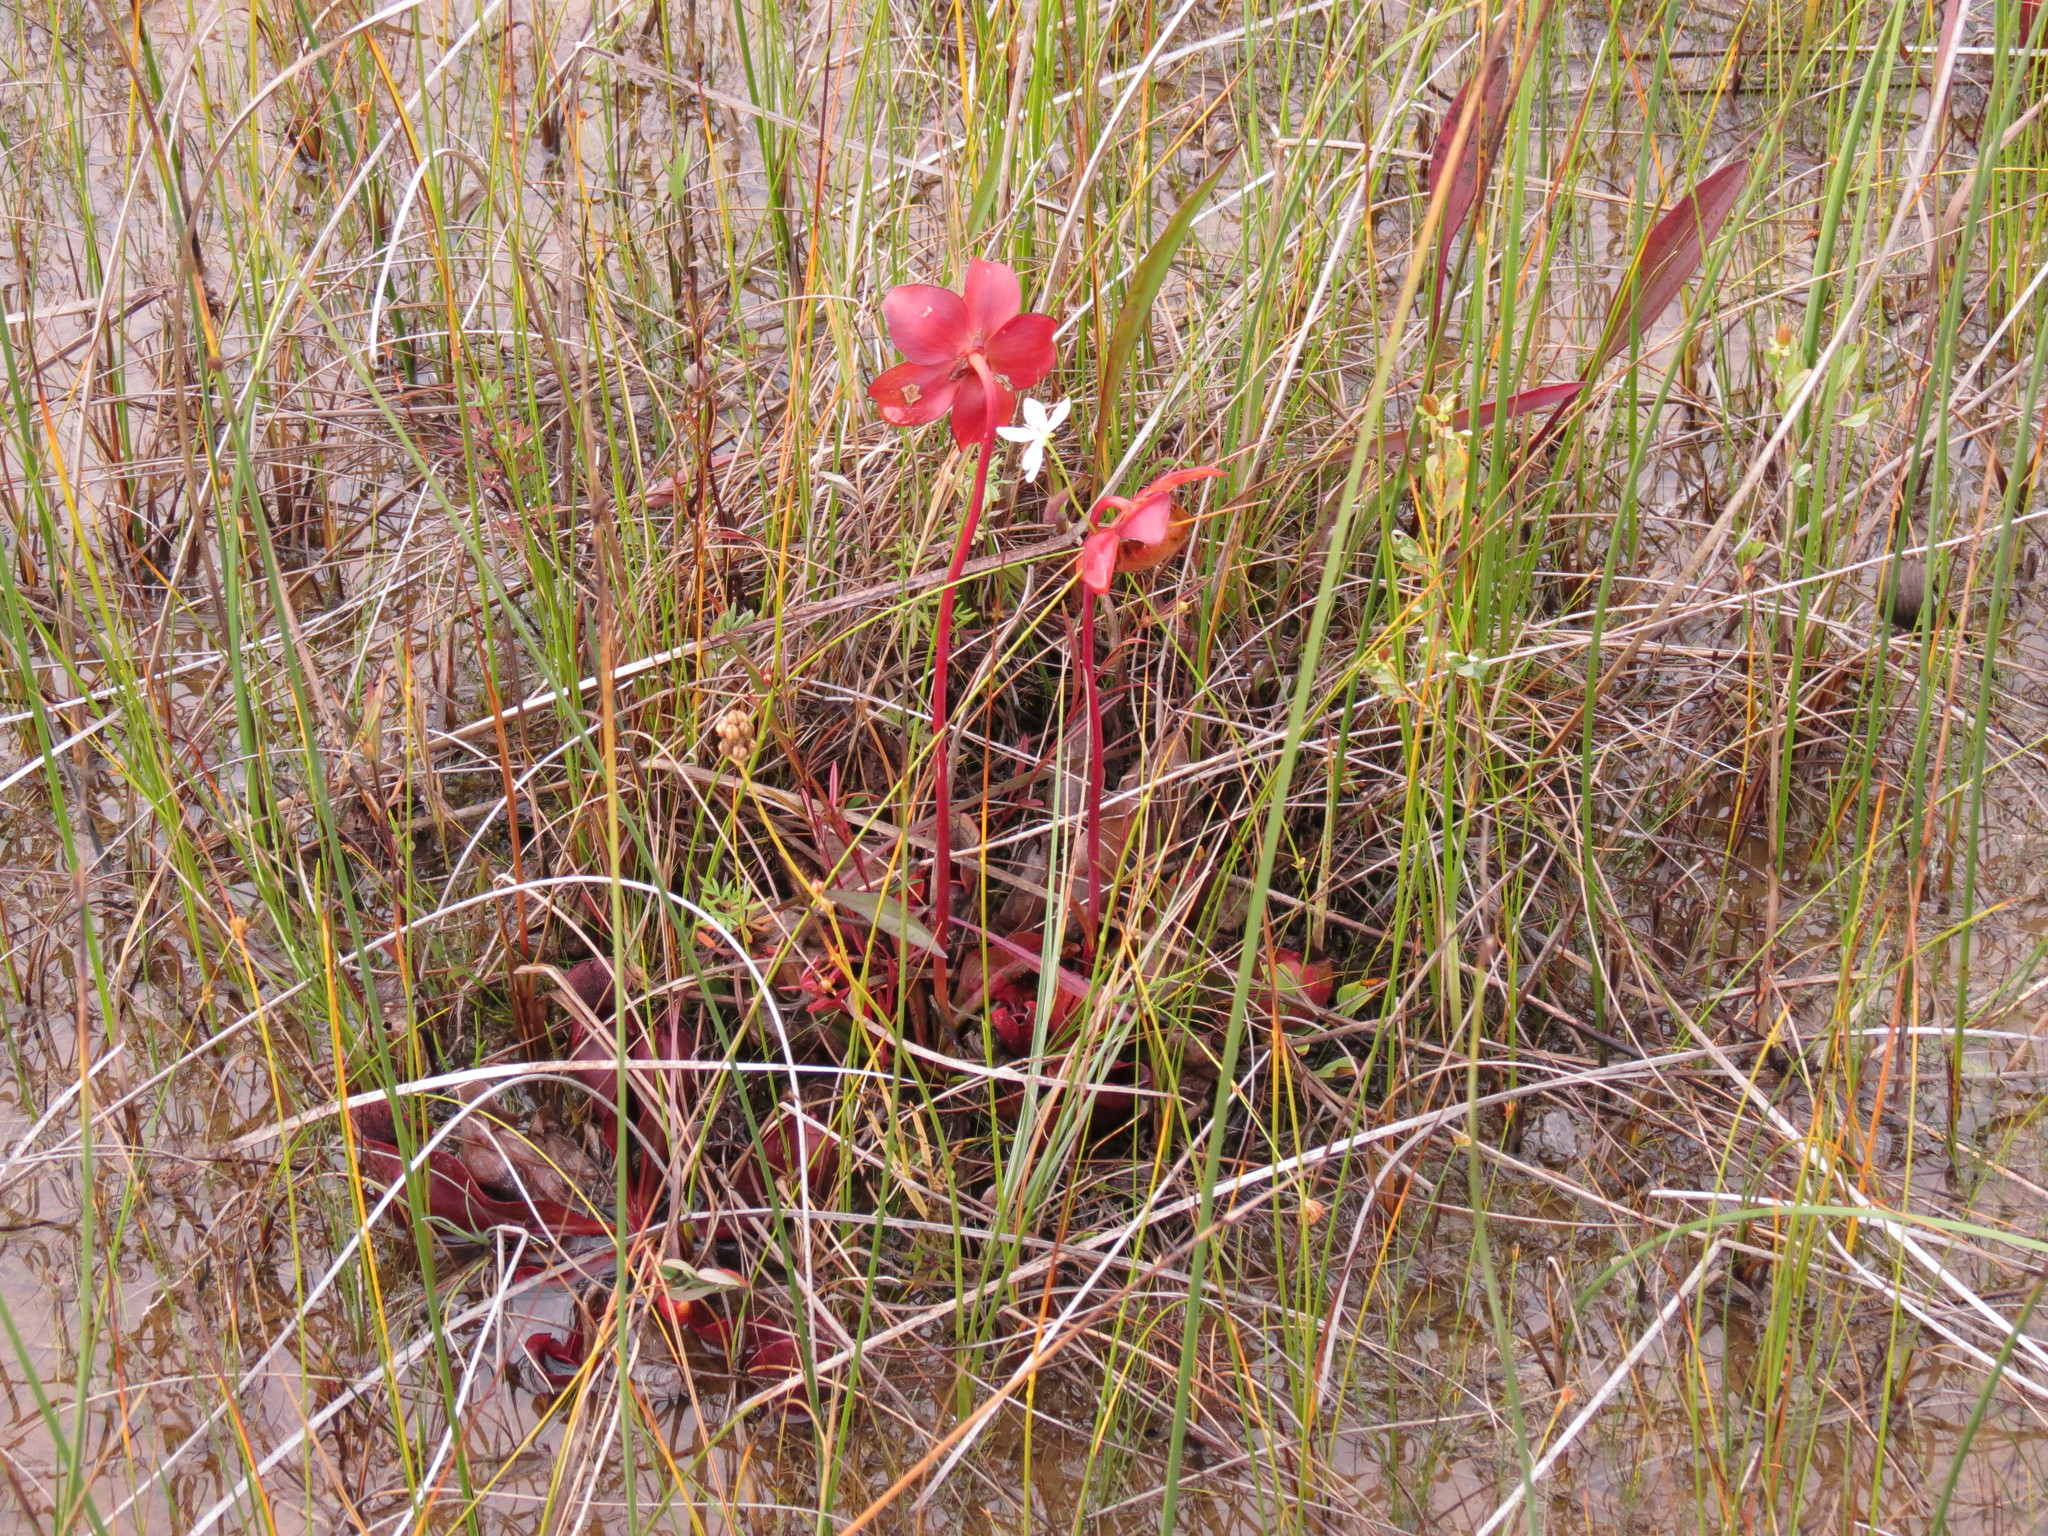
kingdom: Plantae
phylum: Tracheophyta
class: Magnoliopsida
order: Ericales
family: Sarraceniaceae
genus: Sarracenia
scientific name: Sarracenia purpurea
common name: Pitcherplant
